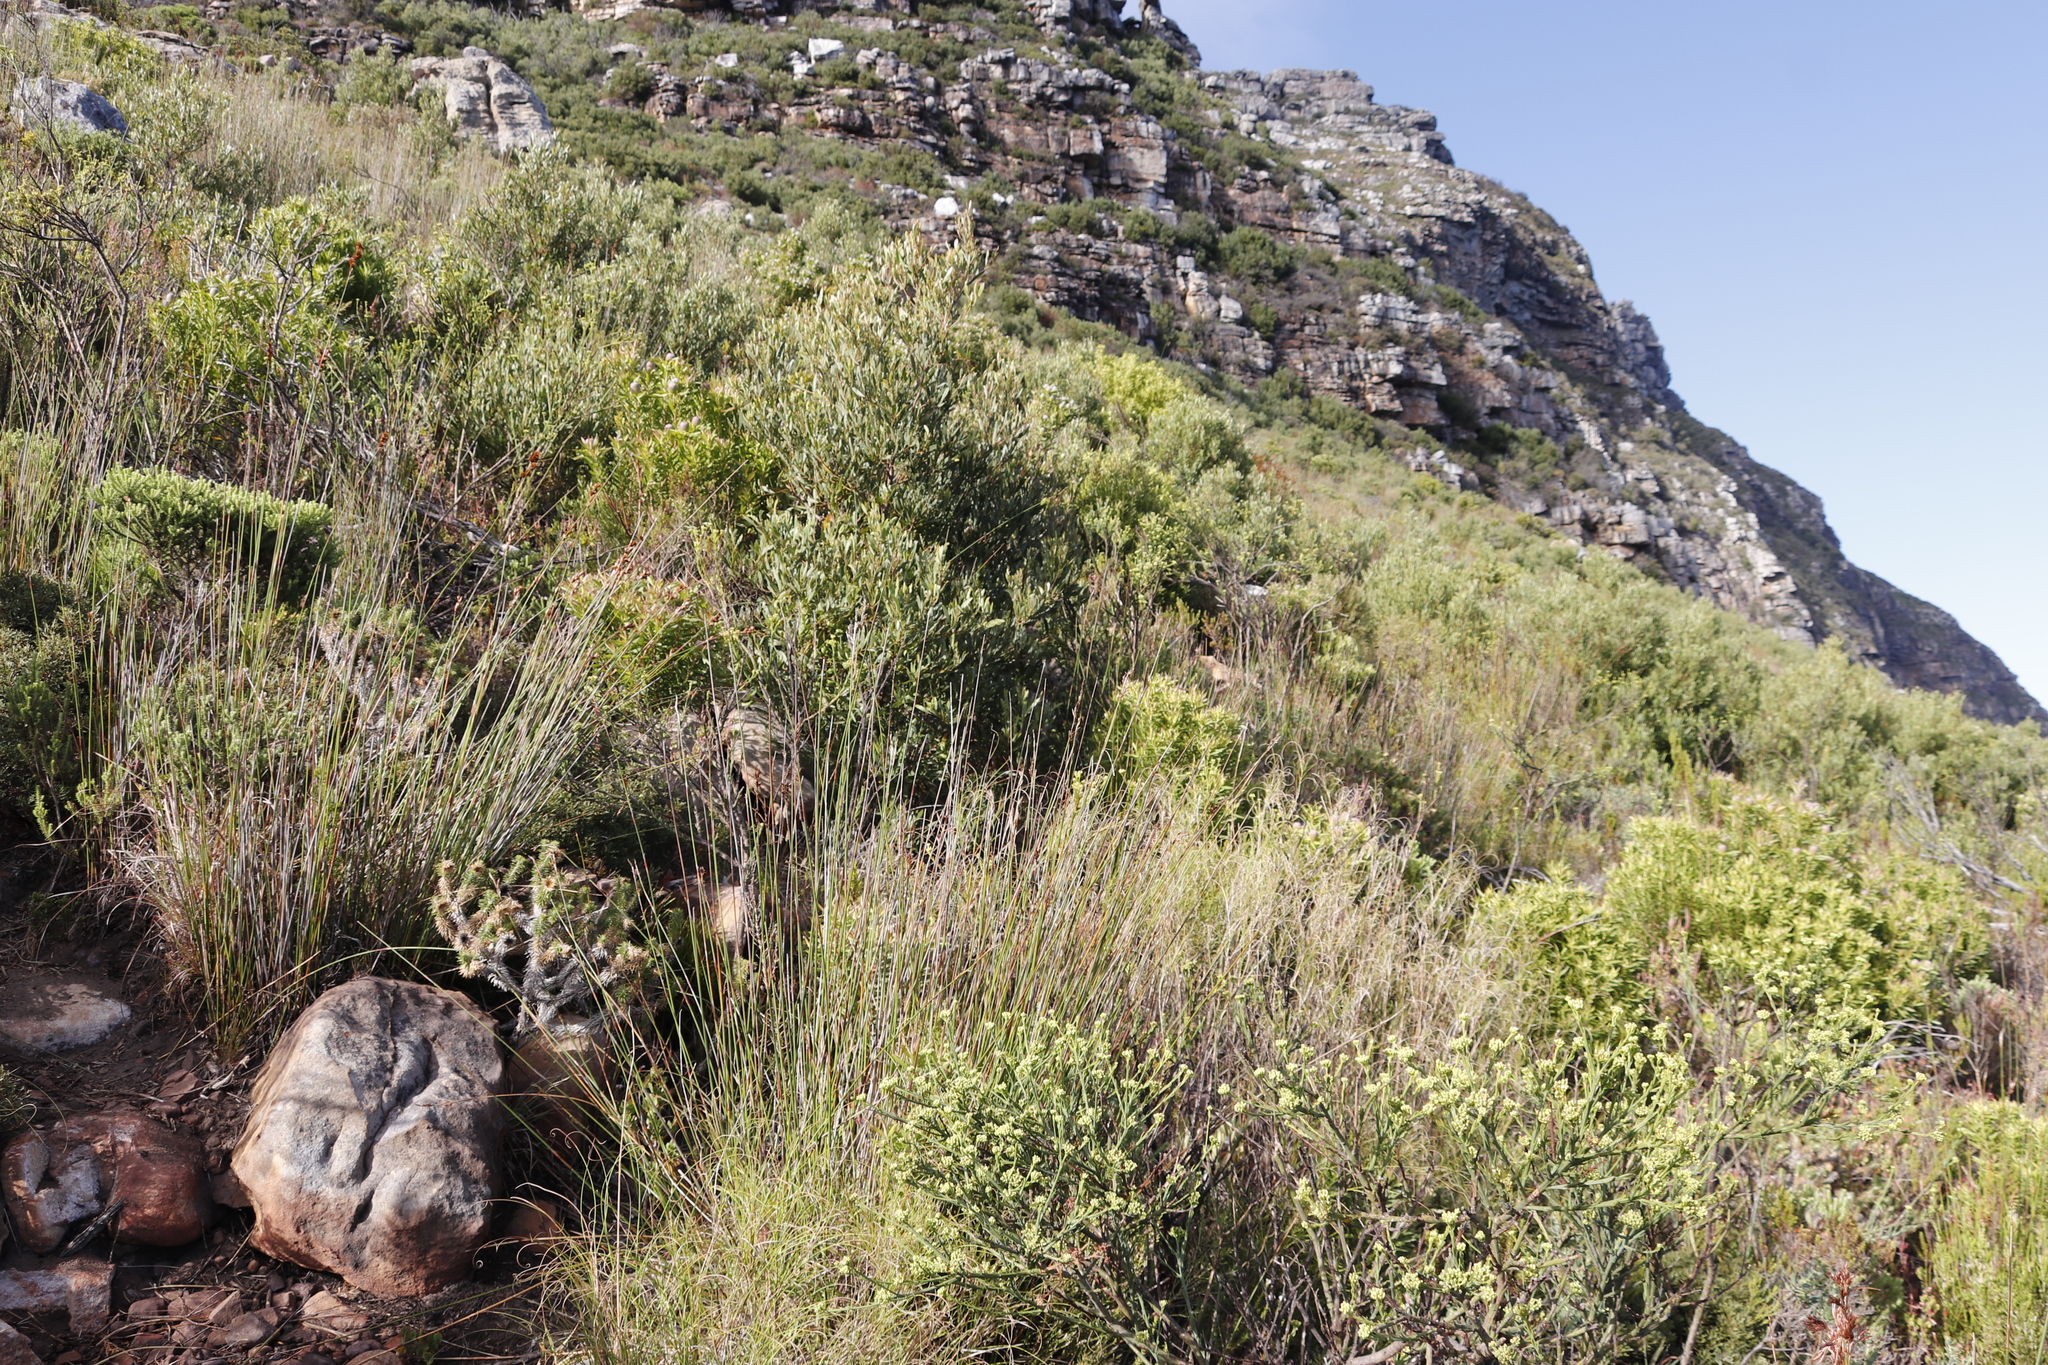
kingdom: Plantae
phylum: Tracheophyta
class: Magnoliopsida
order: Proteales
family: Proteaceae
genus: Leucadendron
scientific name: Leucadendron coniferum
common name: Dune conebush
